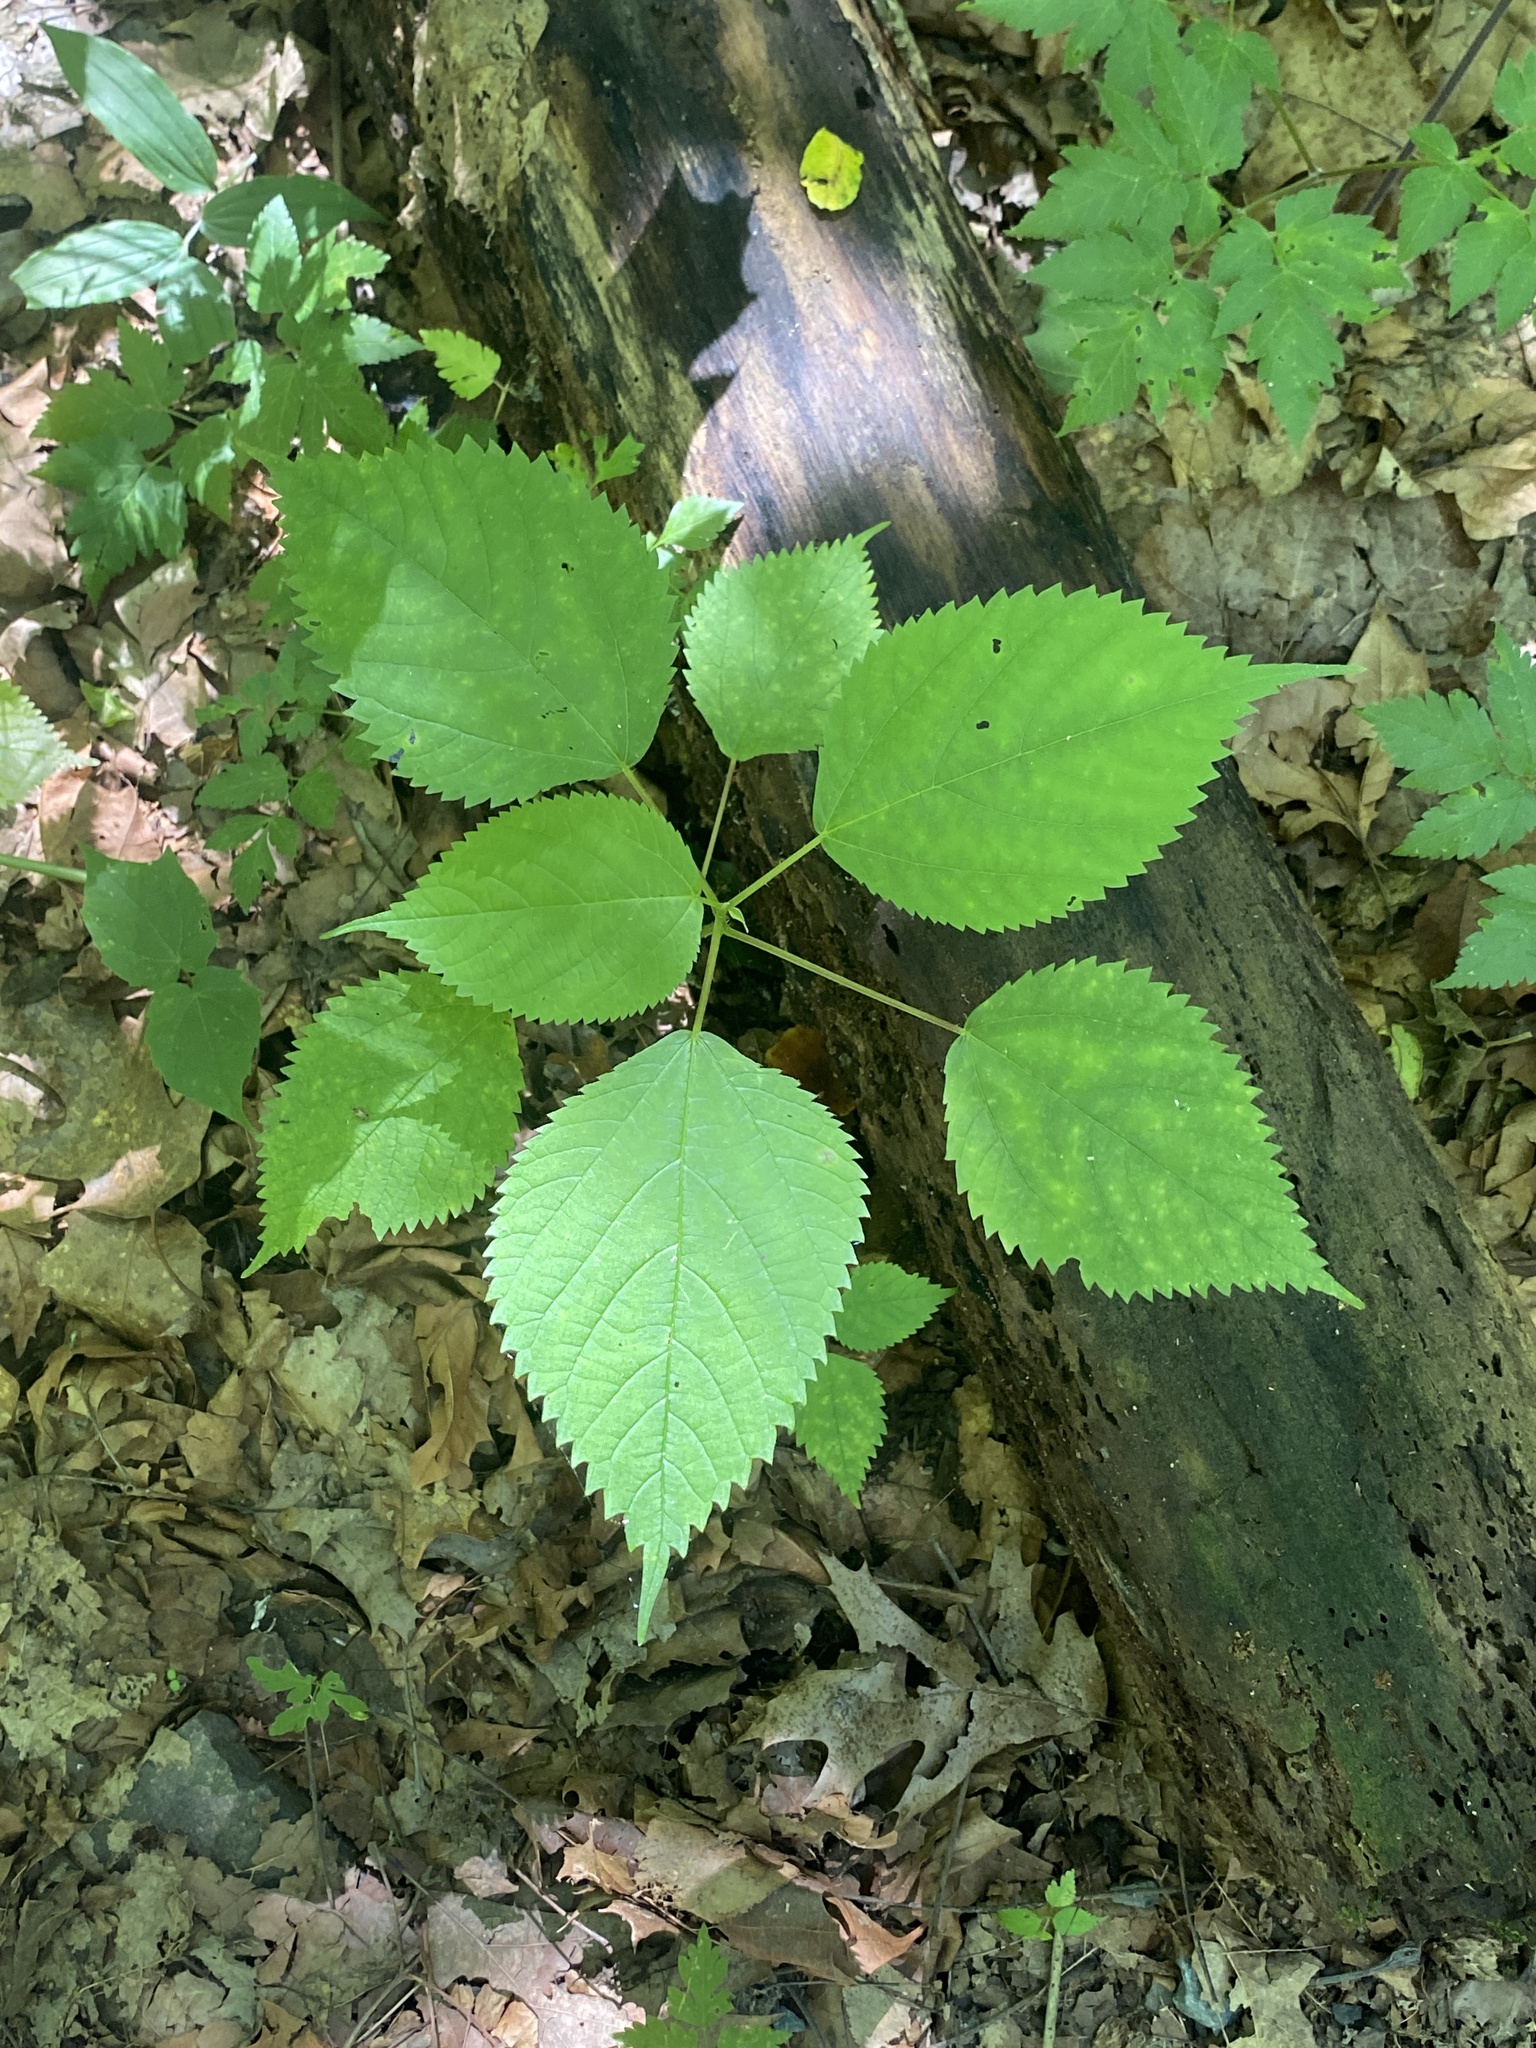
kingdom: Plantae
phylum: Tracheophyta
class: Magnoliopsida
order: Rosales
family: Urticaceae
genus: Laportea
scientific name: Laportea canadensis
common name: Canada nettle
